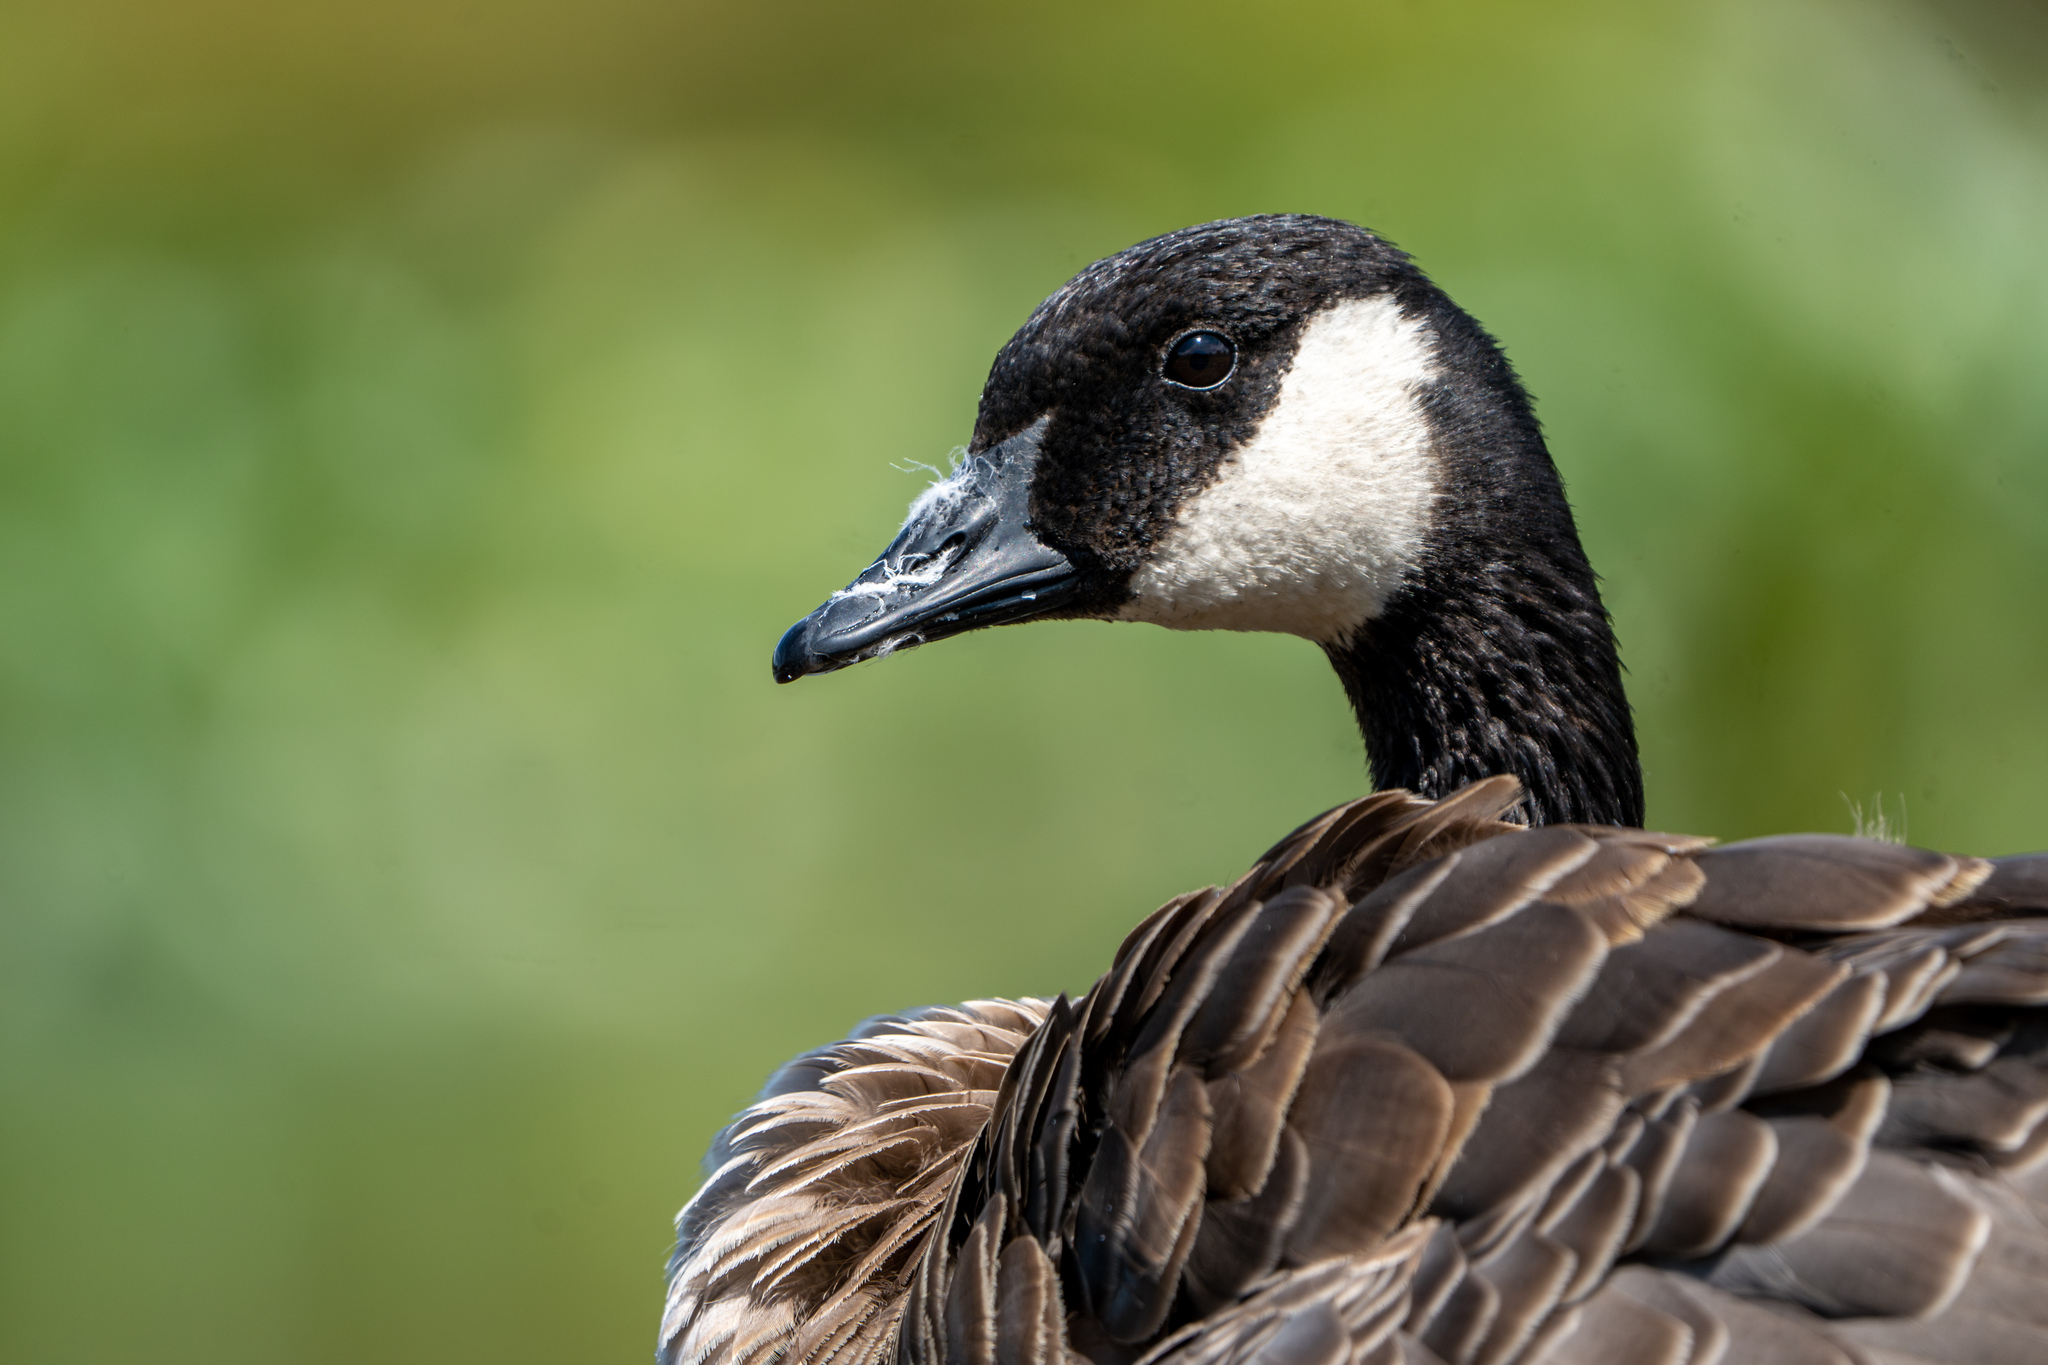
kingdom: Animalia
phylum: Chordata
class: Aves
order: Anseriformes
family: Anatidae
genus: Branta
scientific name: Branta canadensis
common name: Canada goose
